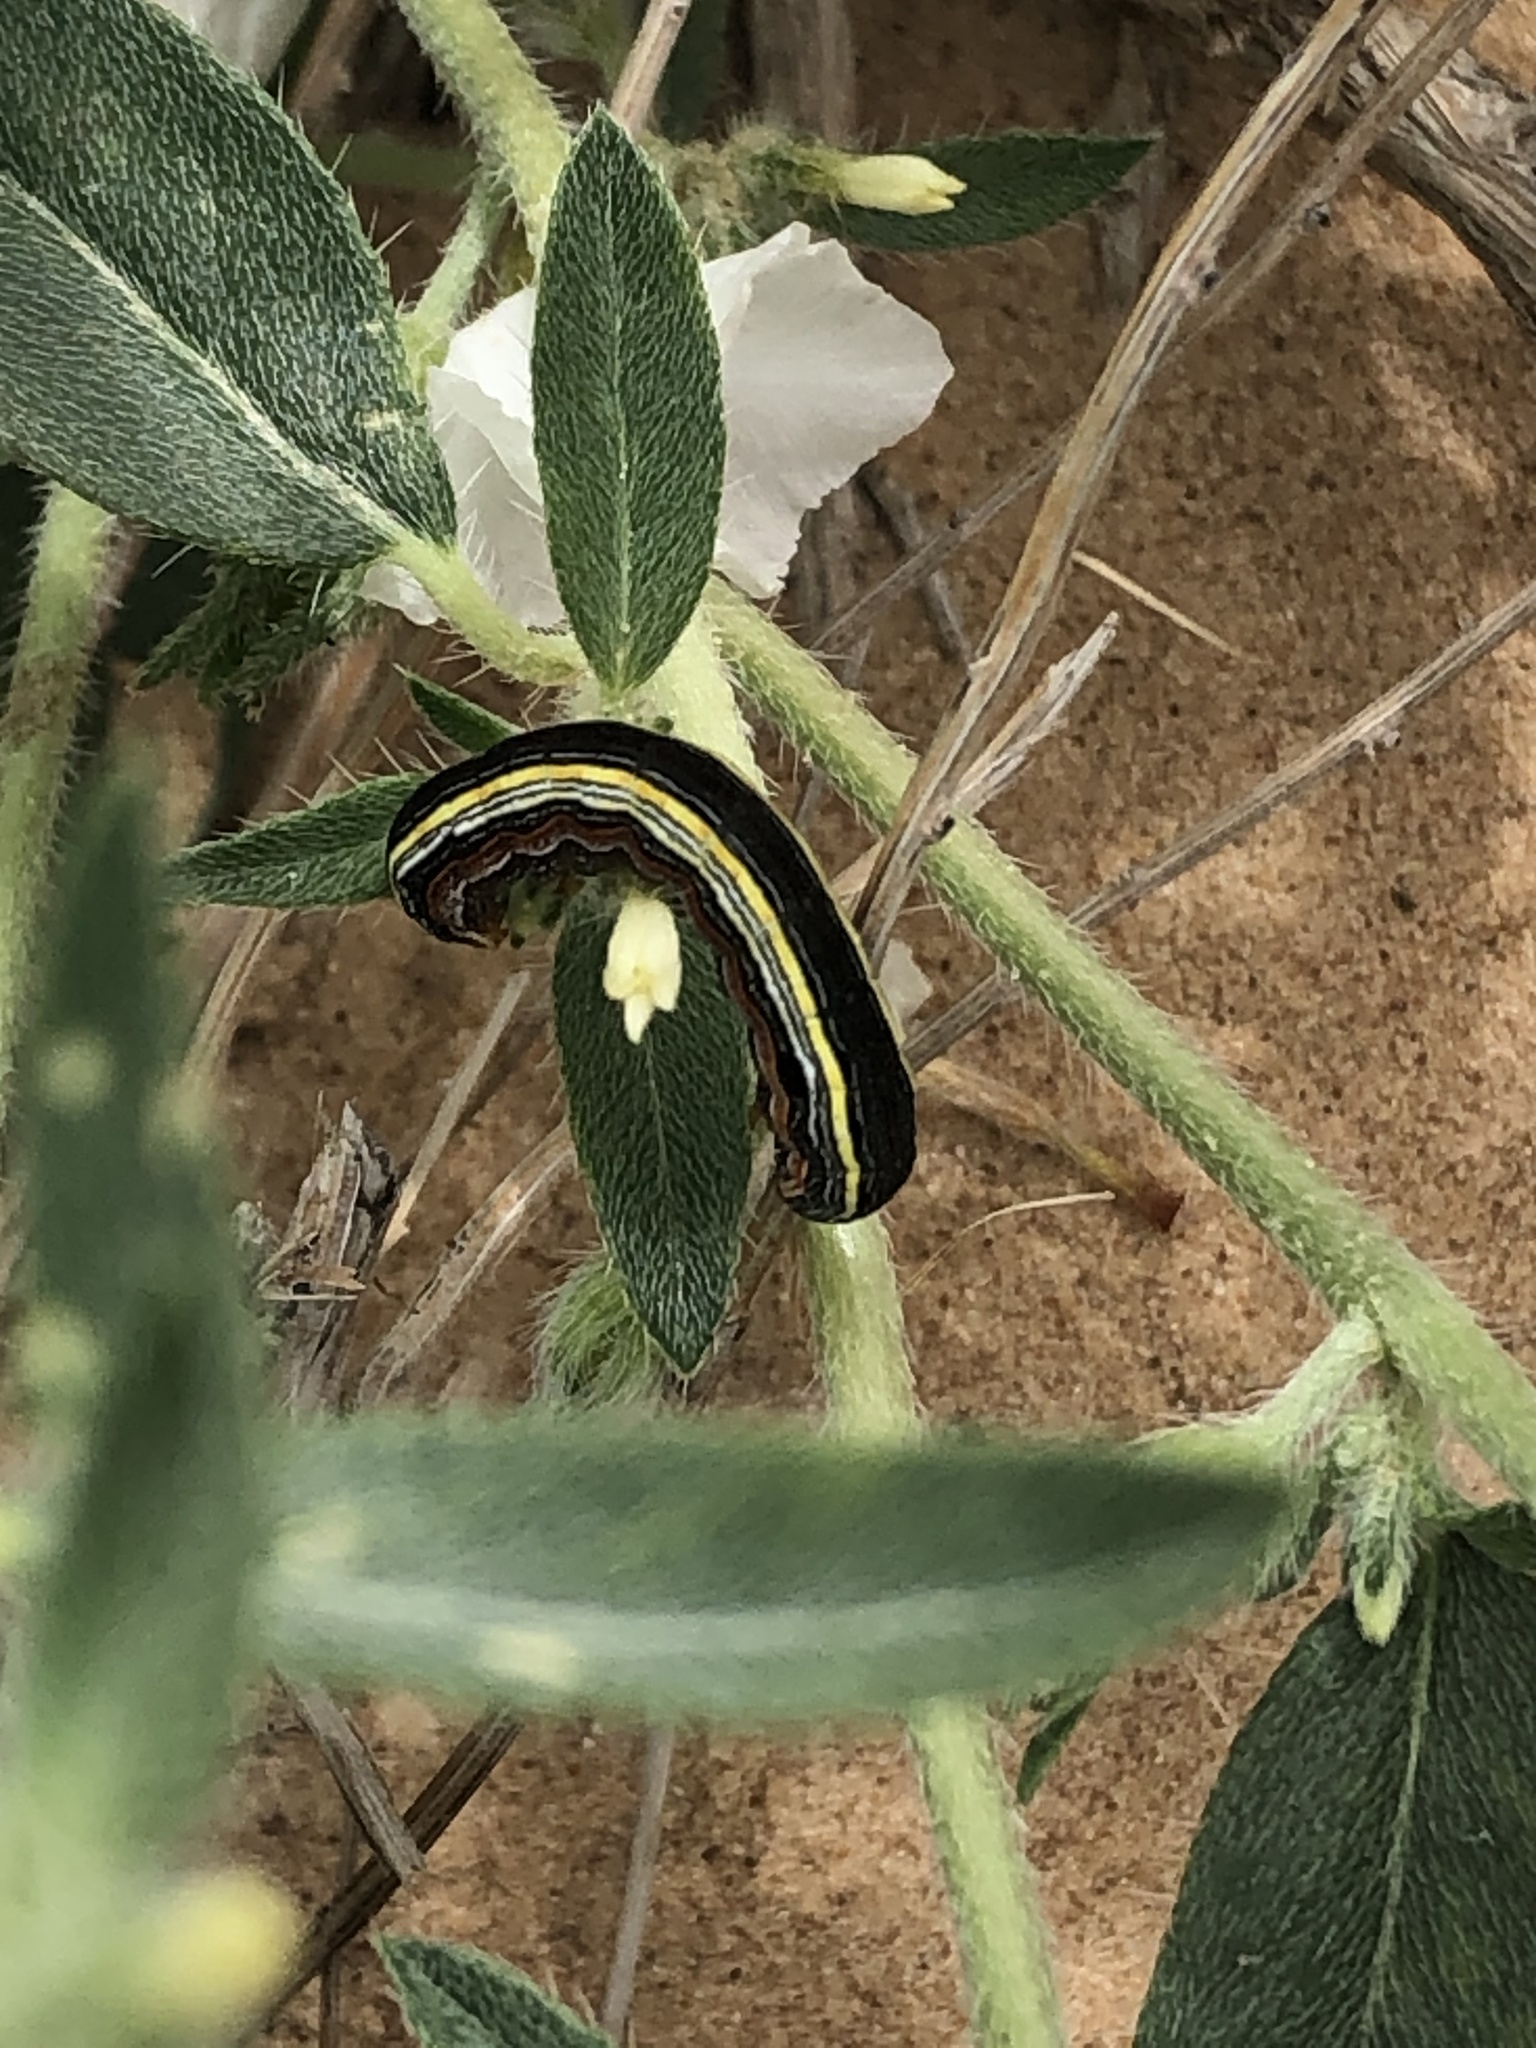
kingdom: Animalia
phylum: Arthropoda
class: Insecta
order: Lepidoptera
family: Noctuidae
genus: Spodoptera
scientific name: Spodoptera ornithogalli
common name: Yellow-striped armyworm
